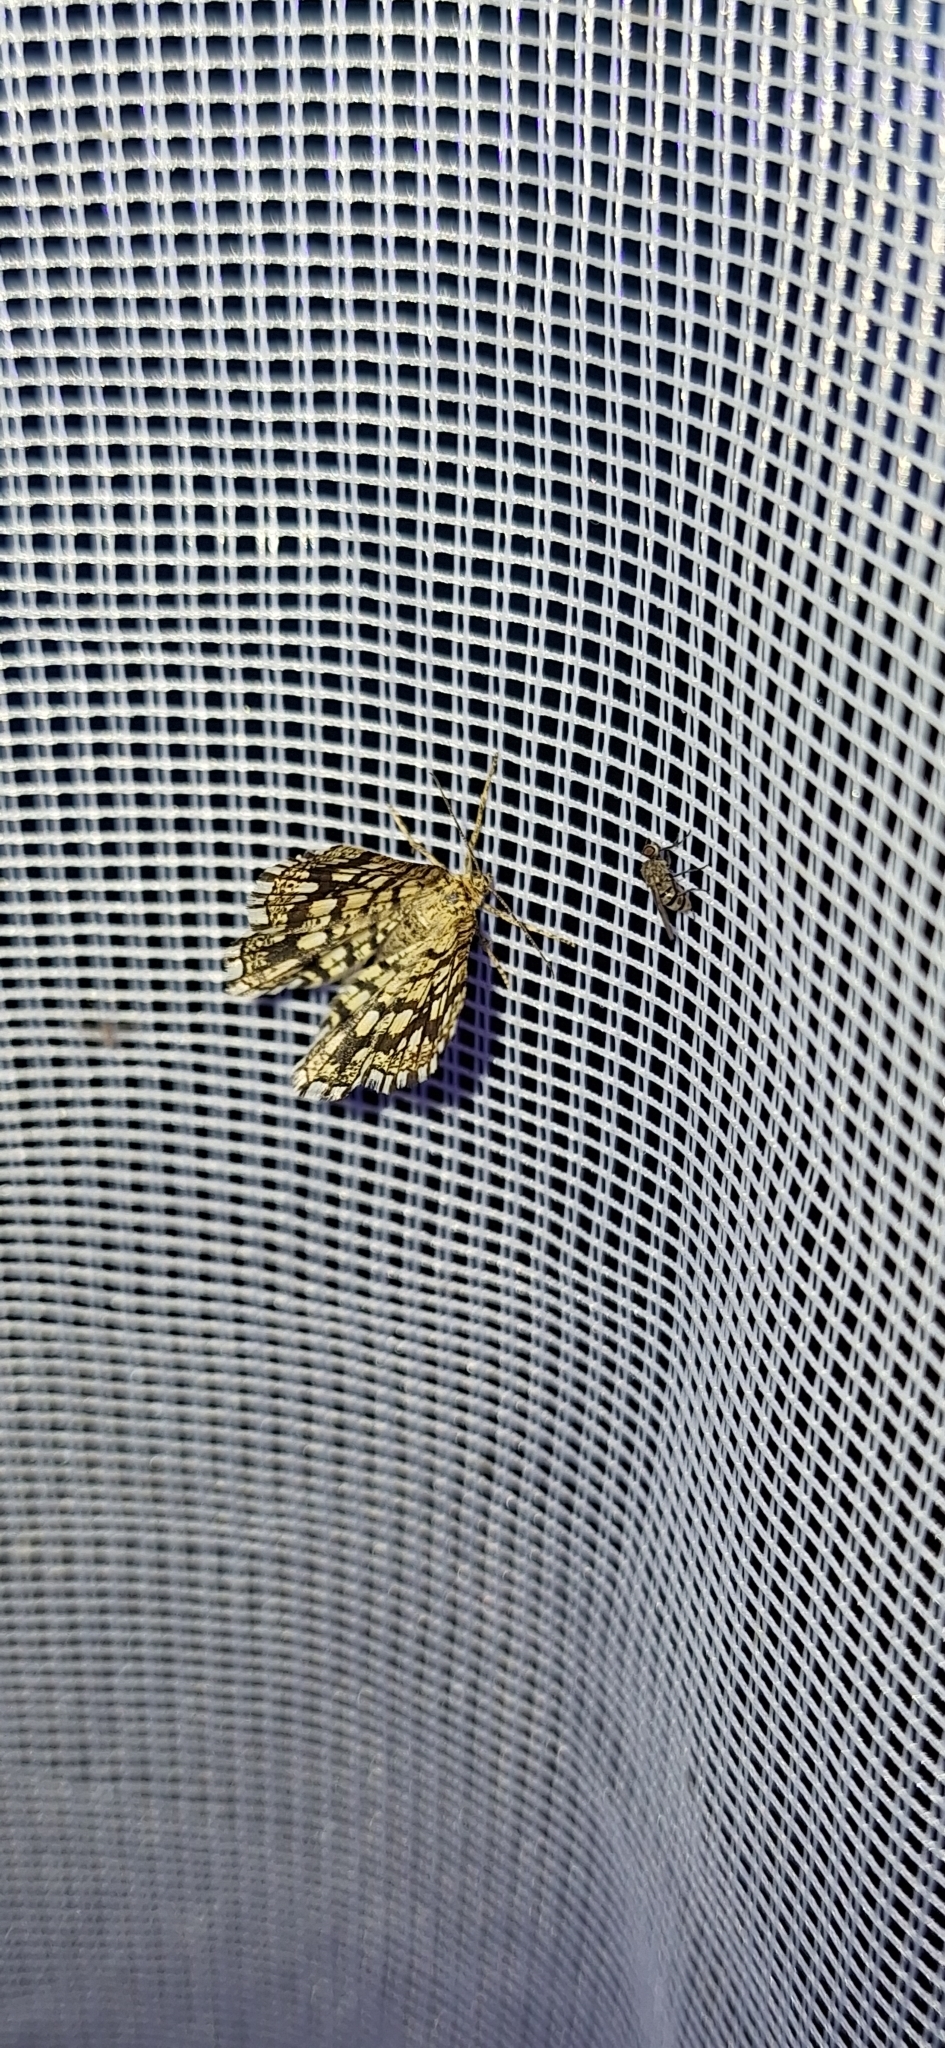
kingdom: Animalia
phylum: Arthropoda
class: Insecta
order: Lepidoptera
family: Geometridae
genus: Chiasmia
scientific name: Chiasmia clathrata
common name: Latticed heath
